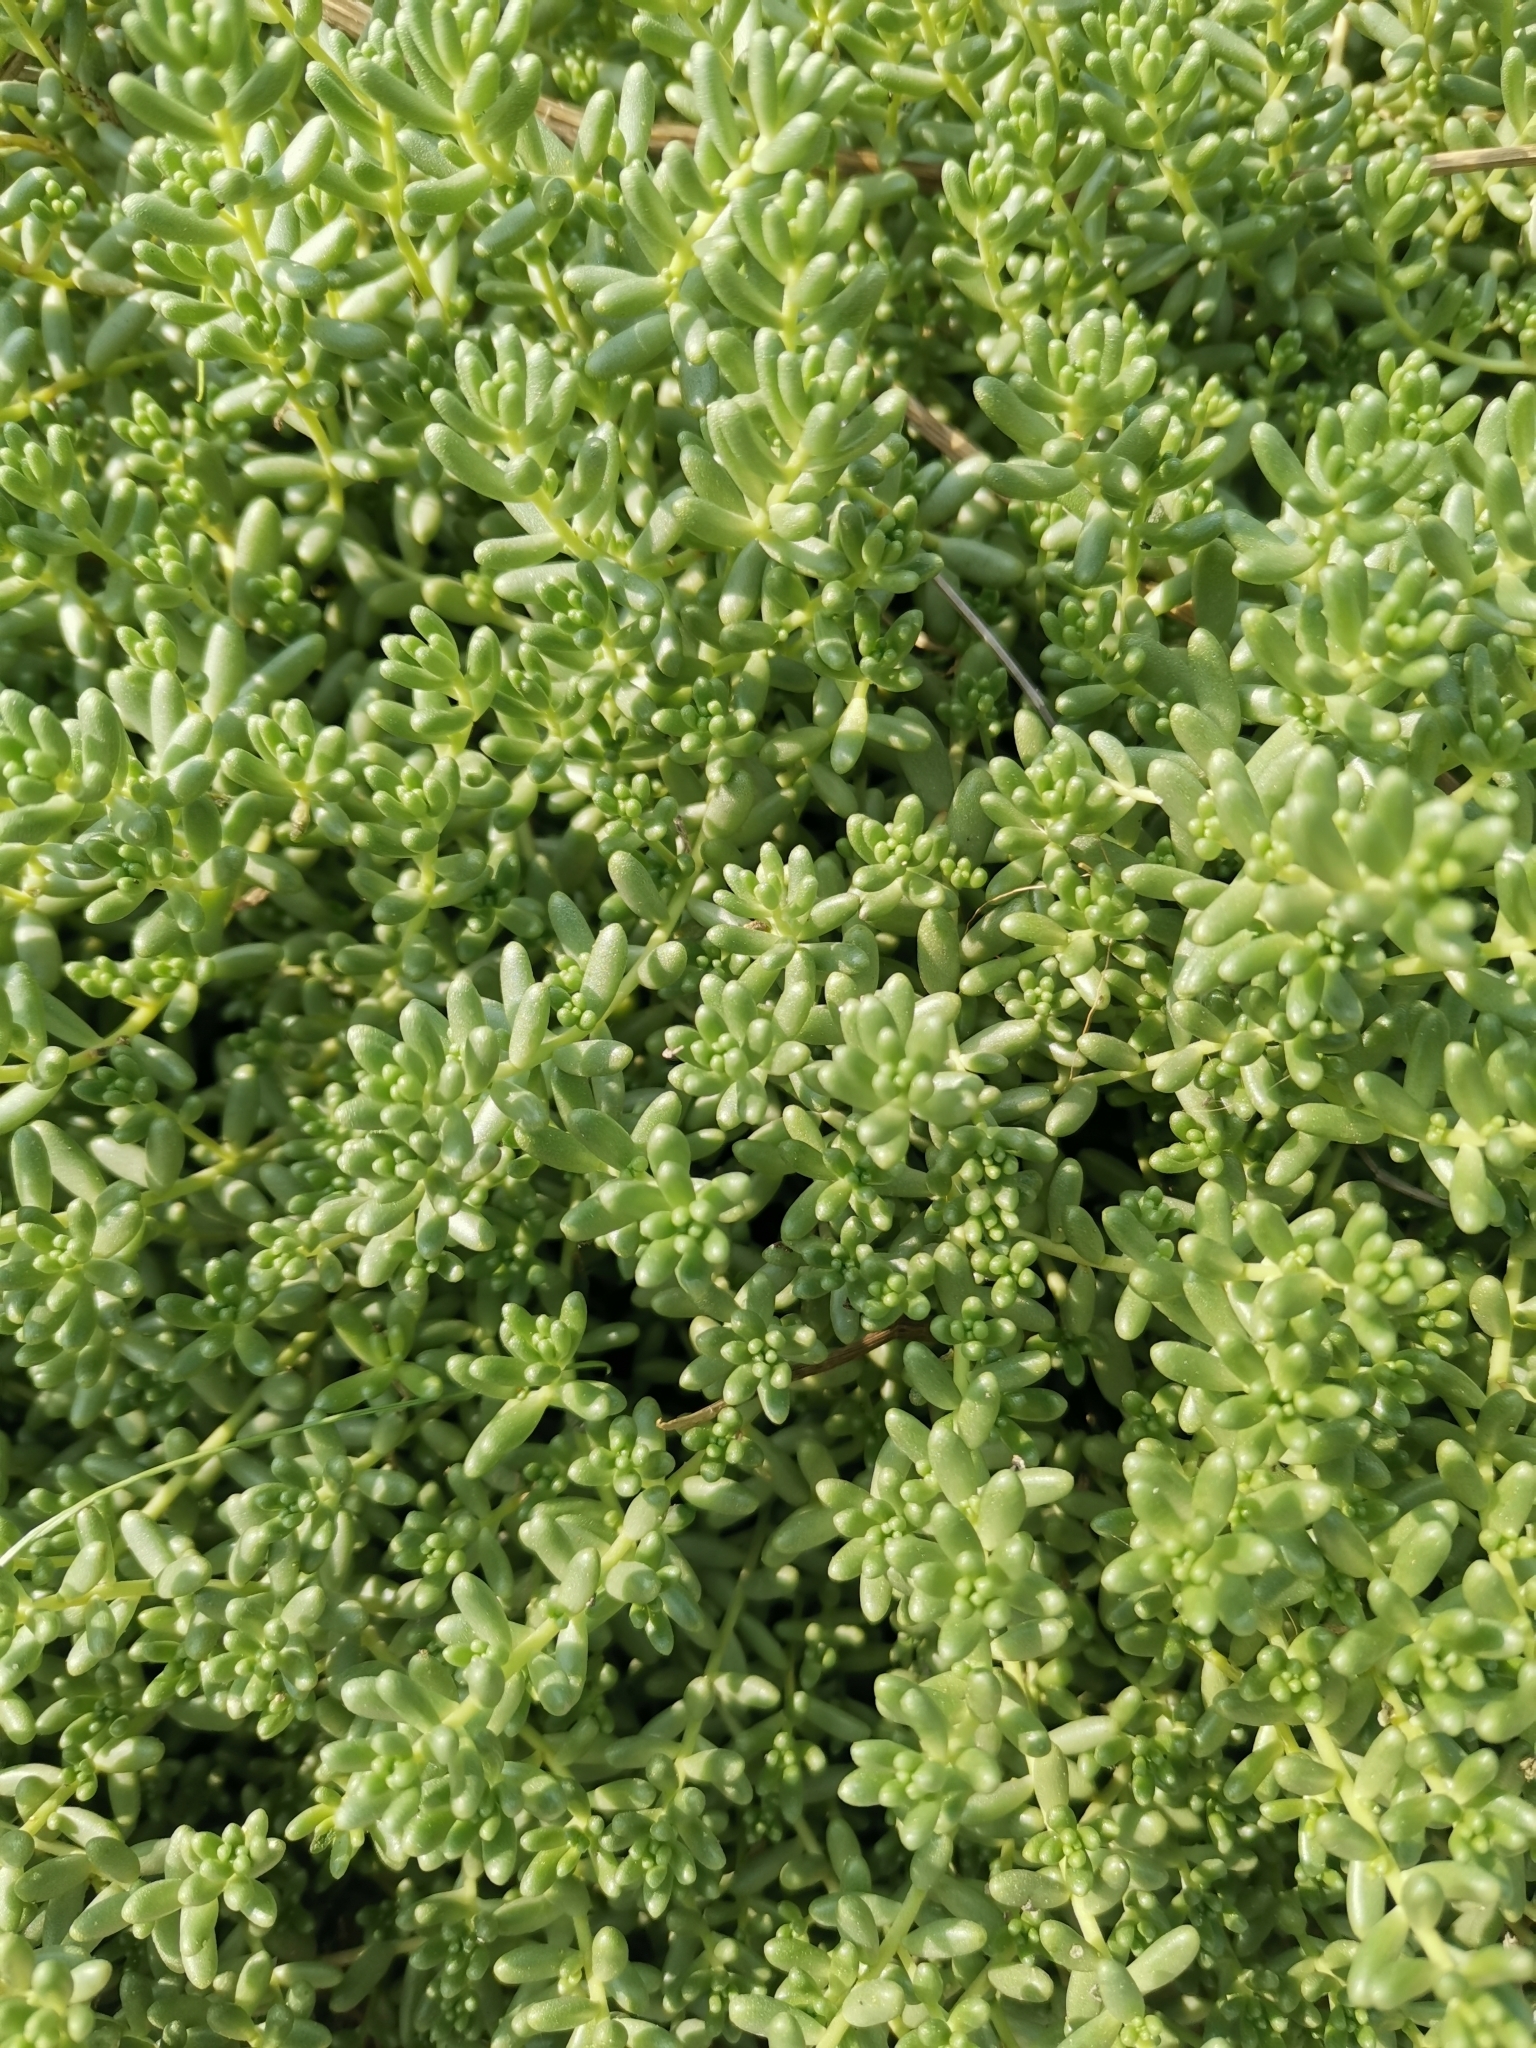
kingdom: Plantae
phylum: Tracheophyta
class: Magnoliopsida
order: Saxifragales
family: Crassulaceae
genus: Sedum
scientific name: Sedum album
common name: White stonecrop
